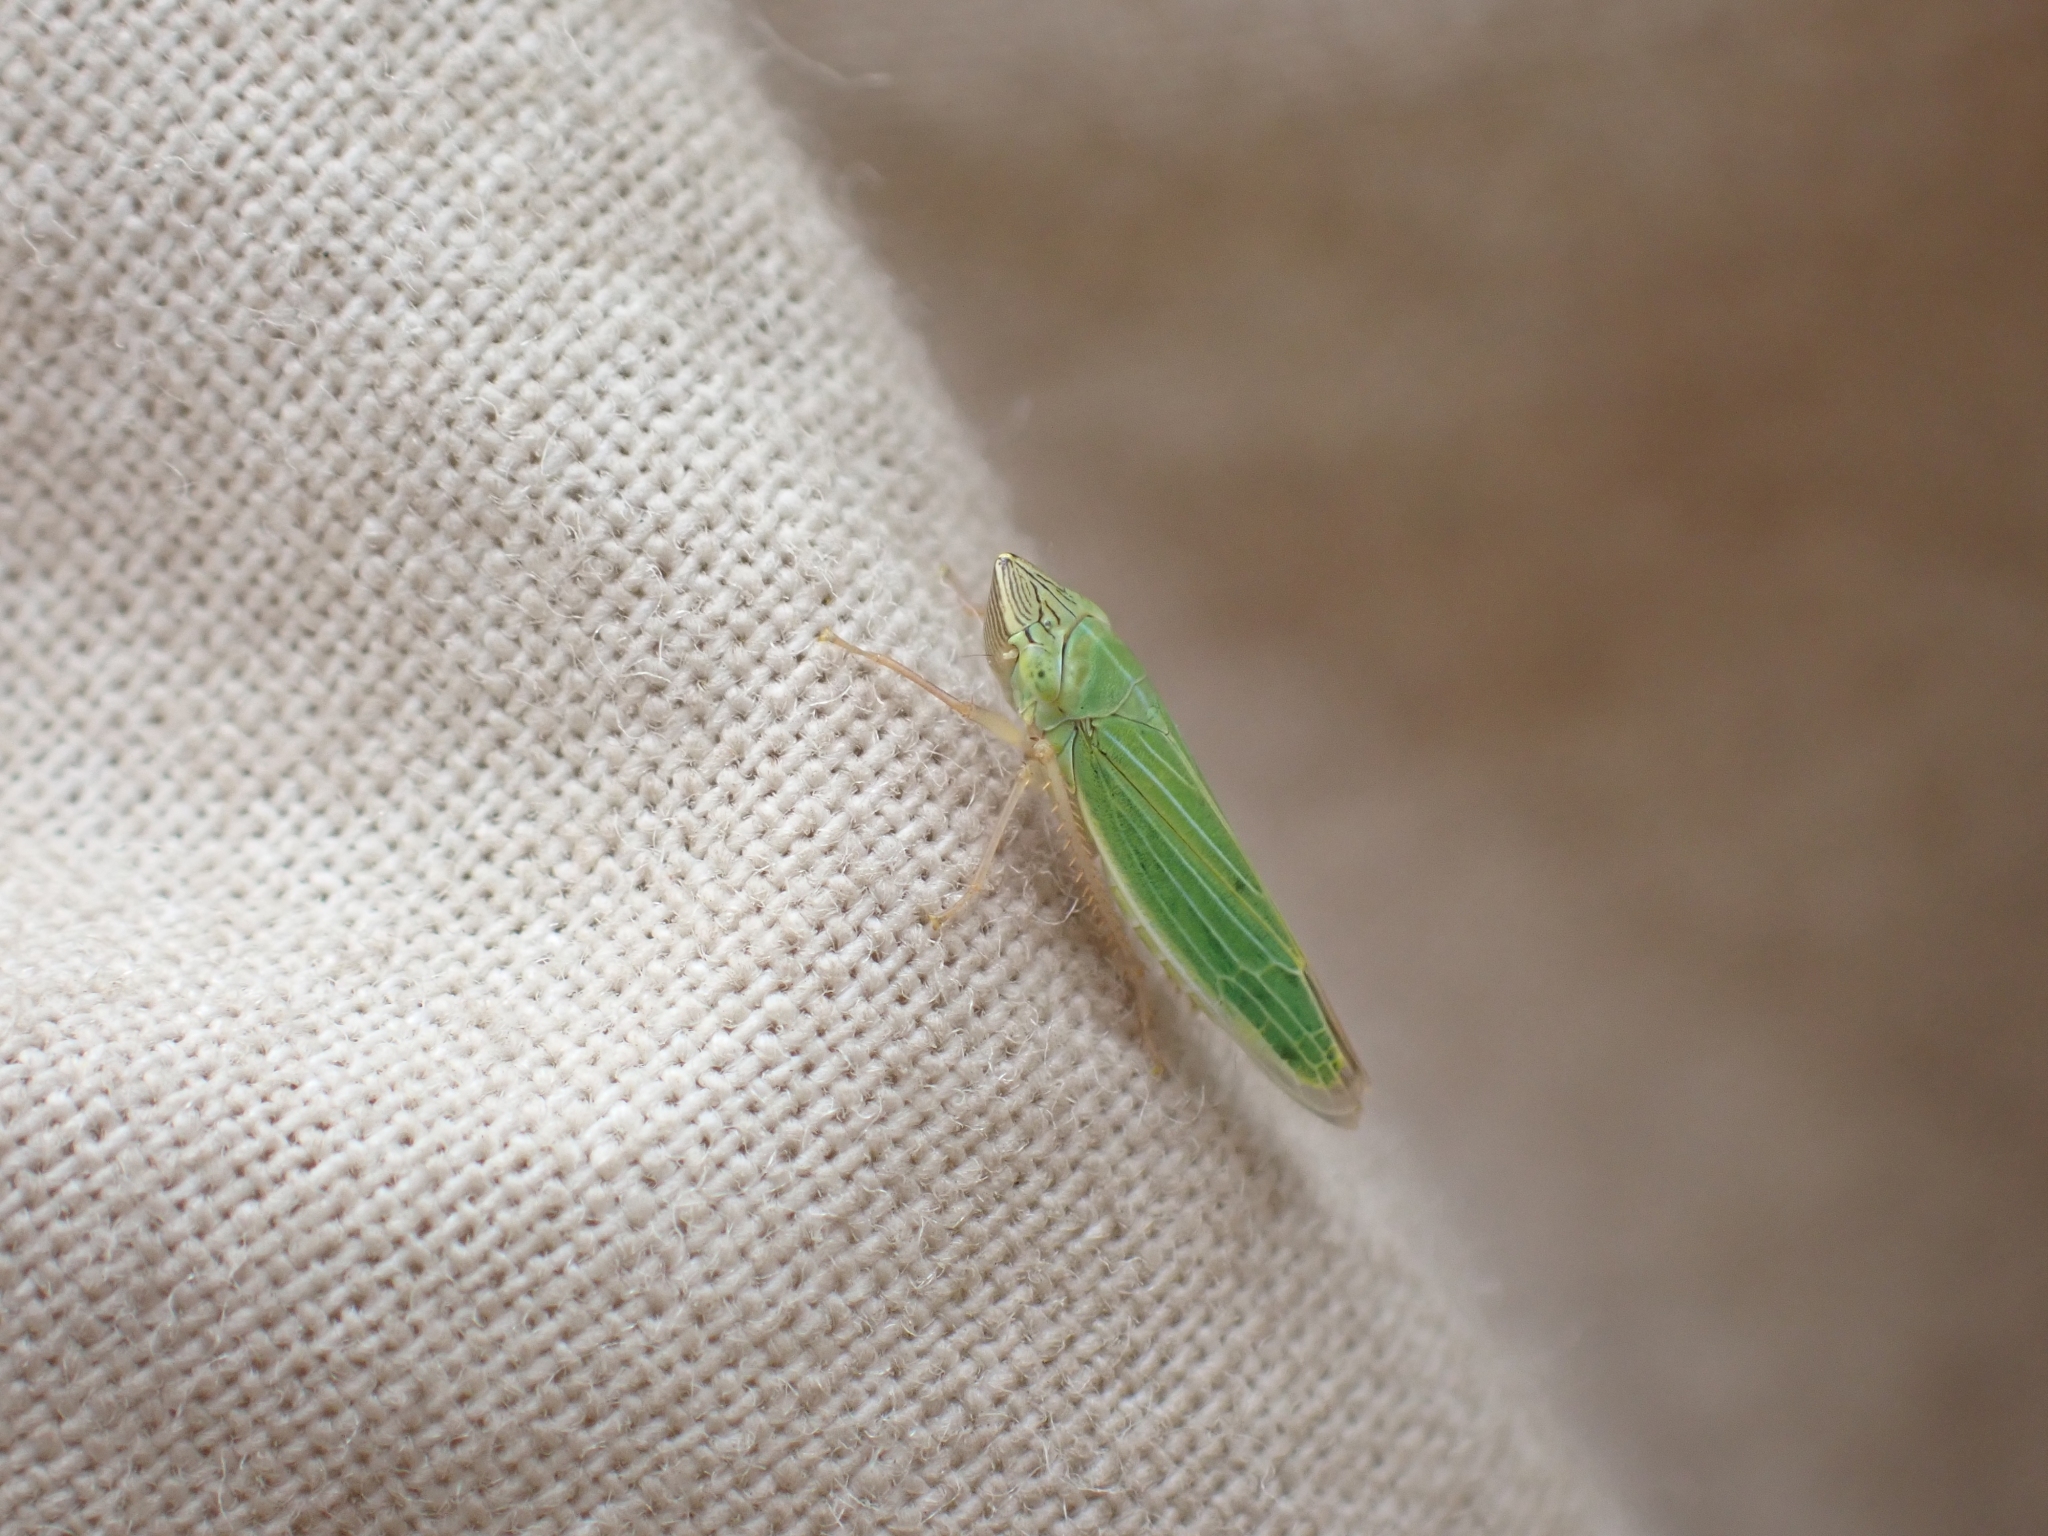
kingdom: Animalia
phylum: Arthropoda
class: Insecta
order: Hemiptera
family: Cicadellidae
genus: Draeculacephala
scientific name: Draeculacephala angulifera
